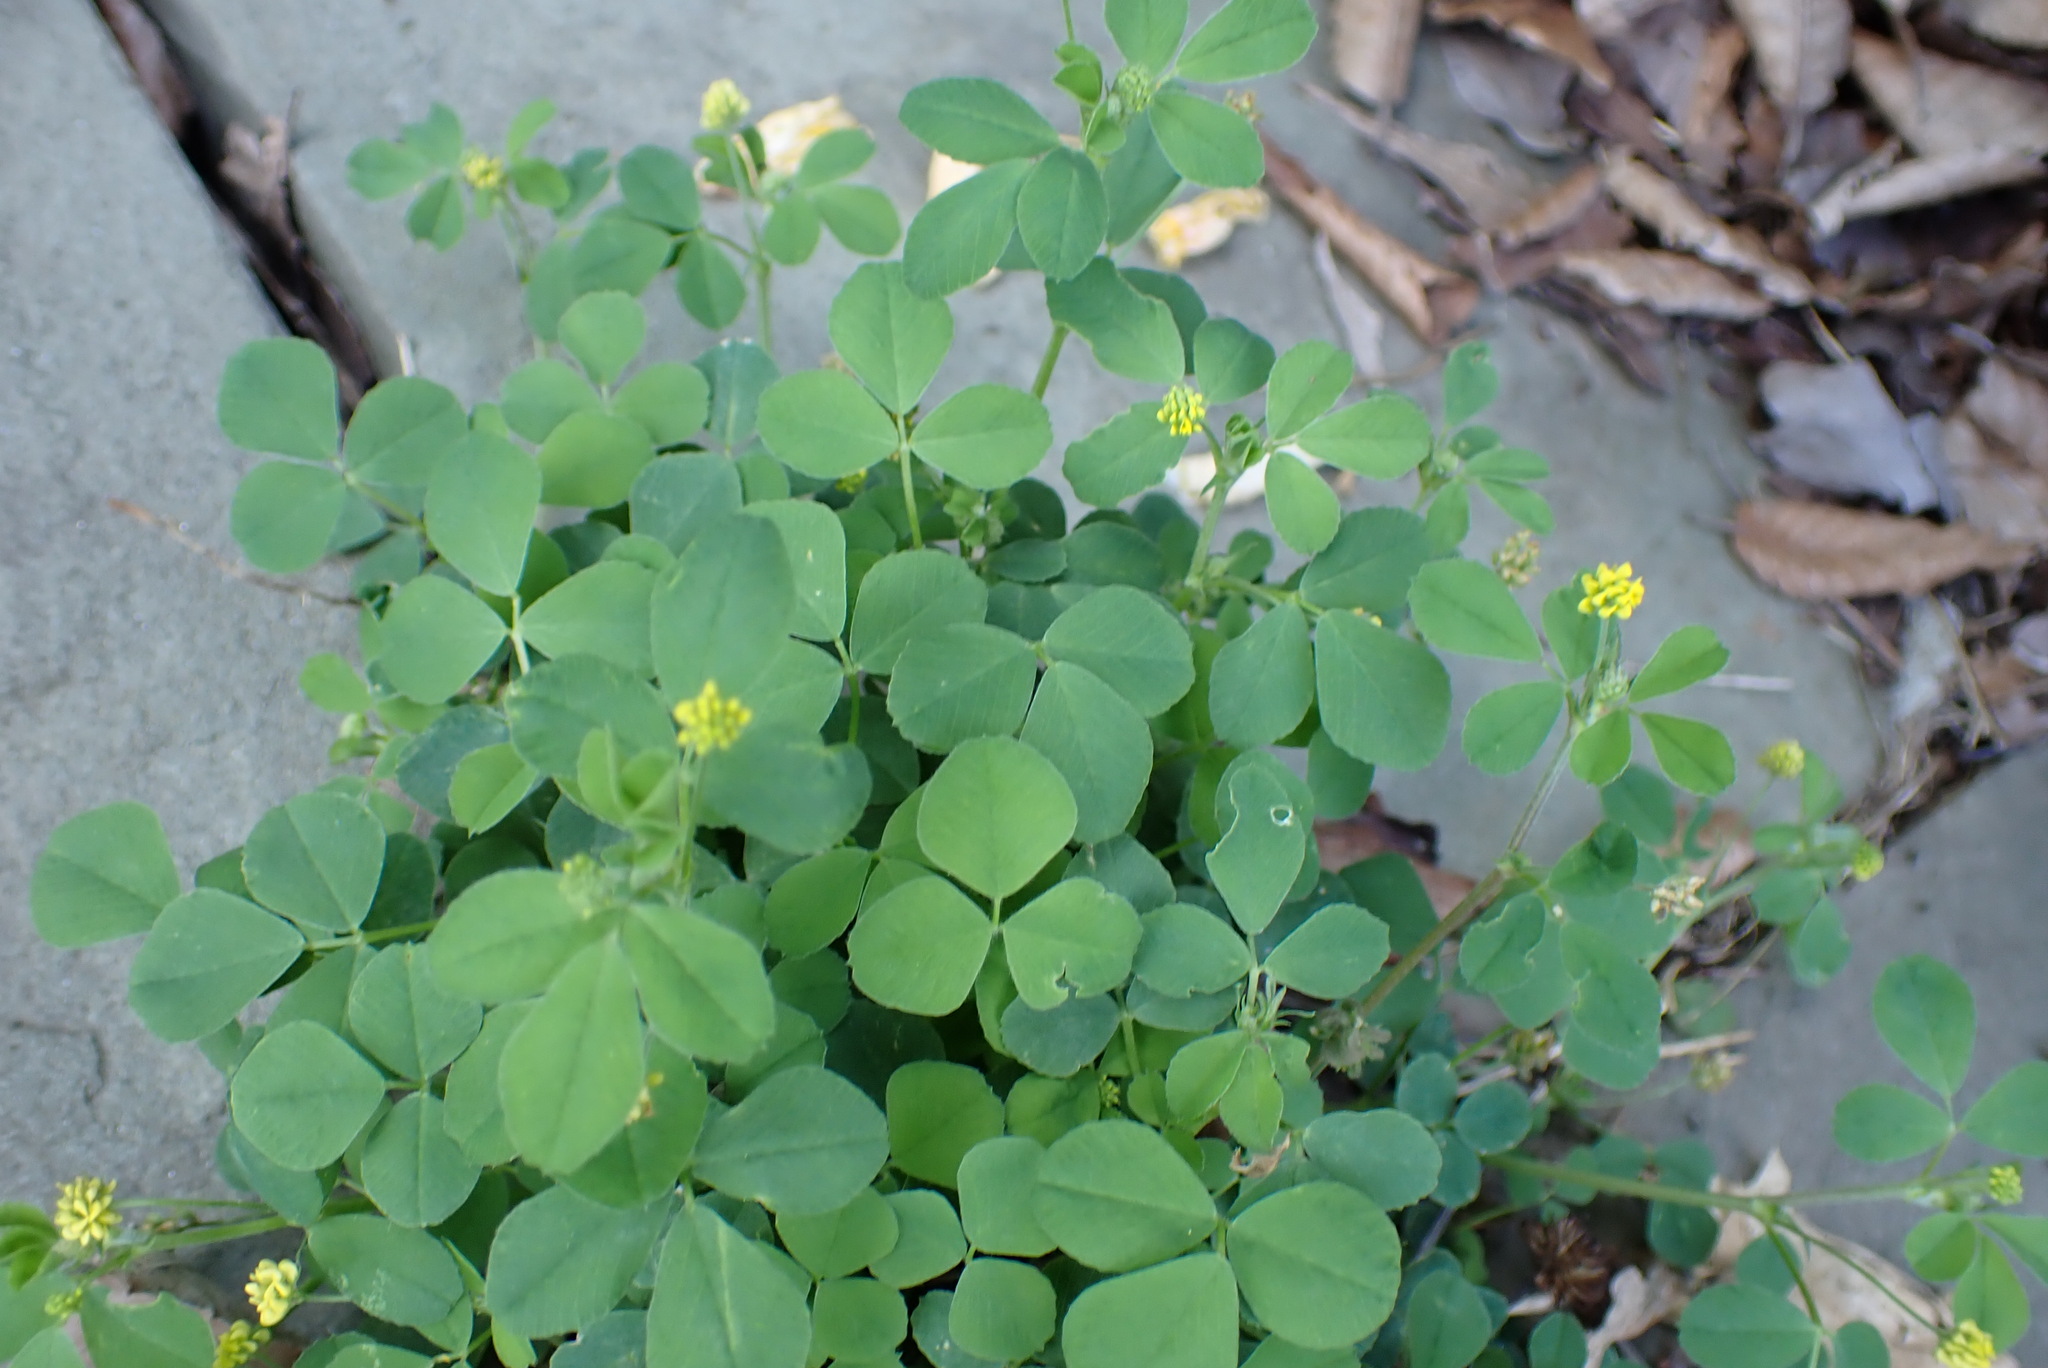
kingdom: Plantae
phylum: Tracheophyta
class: Magnoliopsida
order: Fabales
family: Fabaceae
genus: Medicago
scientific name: Medicago lupulina
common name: Black medick
